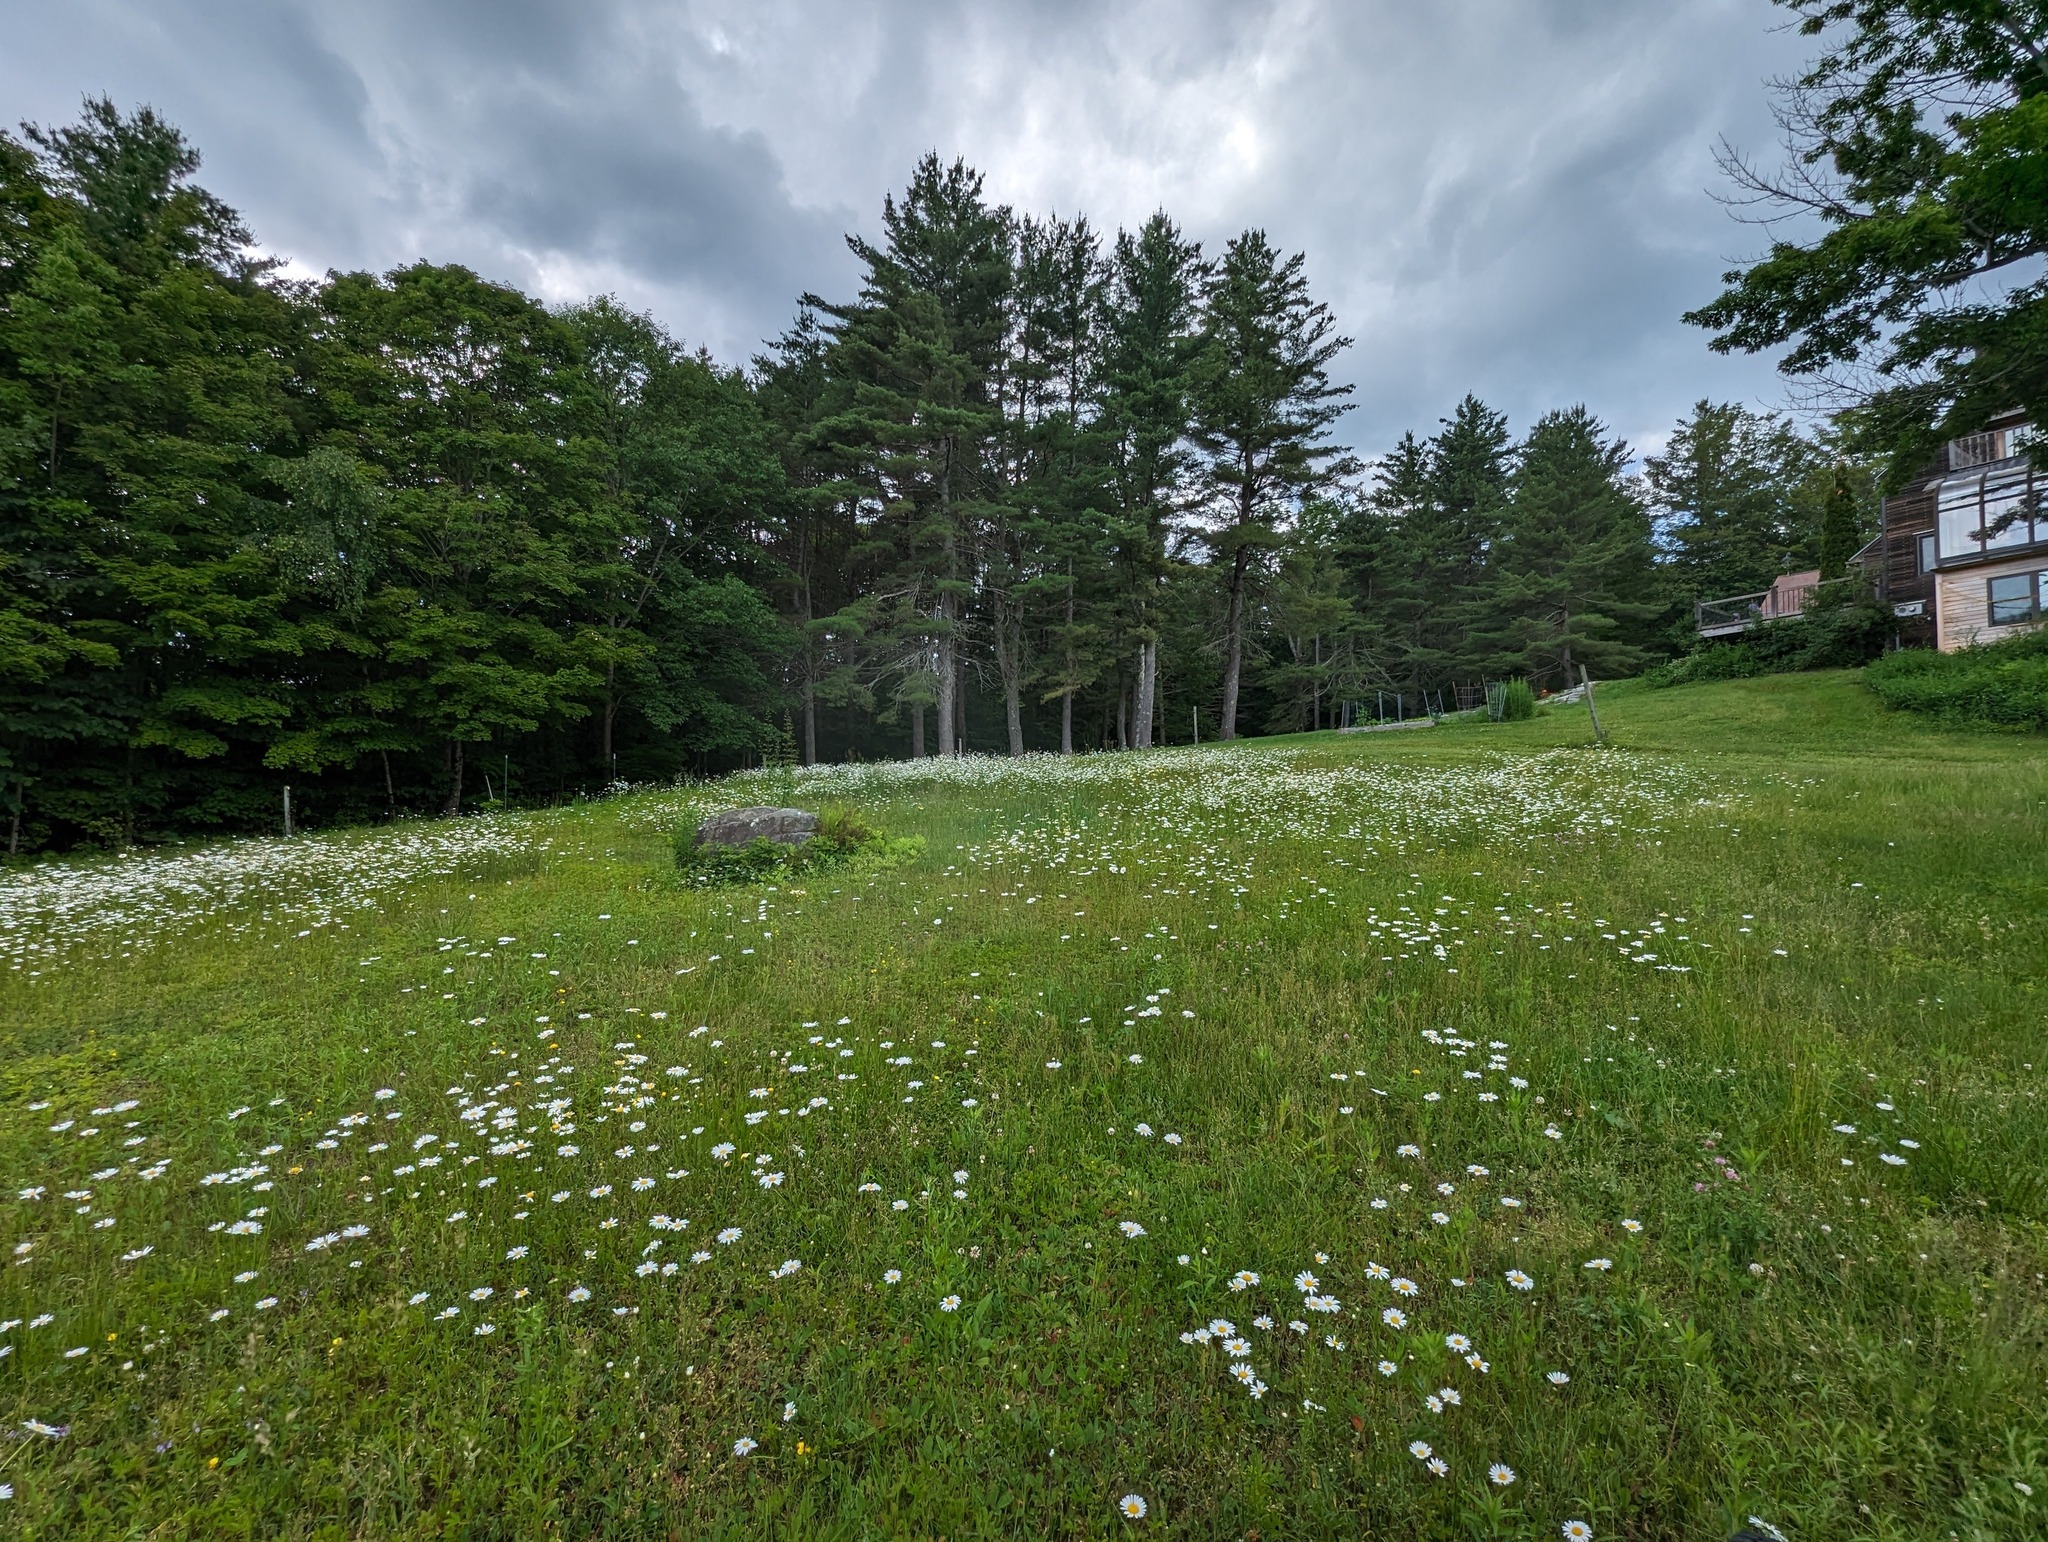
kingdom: Plantae
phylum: Tracheophyta
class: Pinopsida
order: Pinales
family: Pinaceae
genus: Pinus
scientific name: Pinus strobus
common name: Weymouth pine
